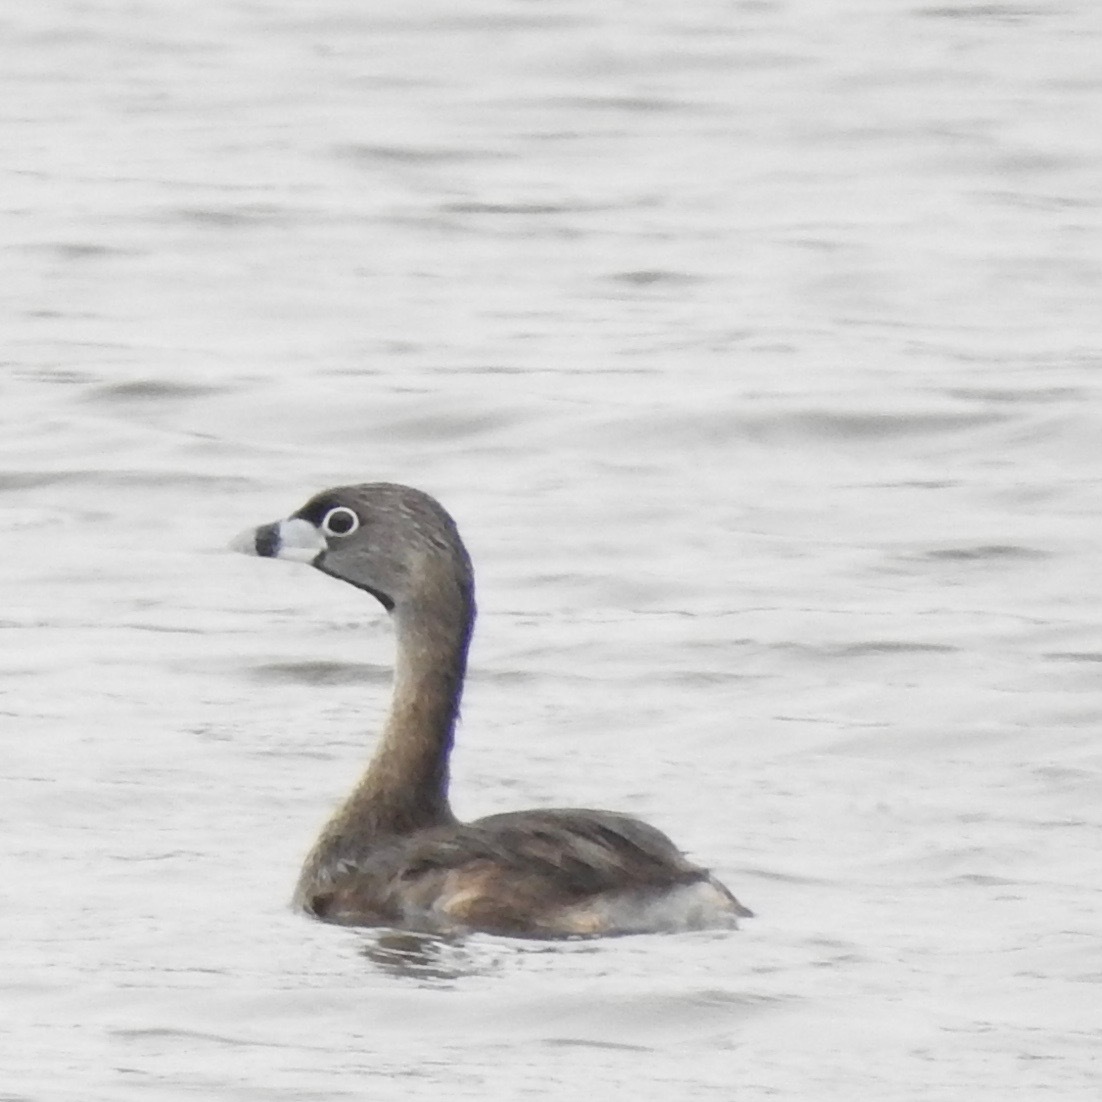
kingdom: Animalia
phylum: Chordata
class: Aves
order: Podicipediformes
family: Podicipedidae
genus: Podilymbus
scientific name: Podilymbus podiceps
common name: Pied-billed grebe
